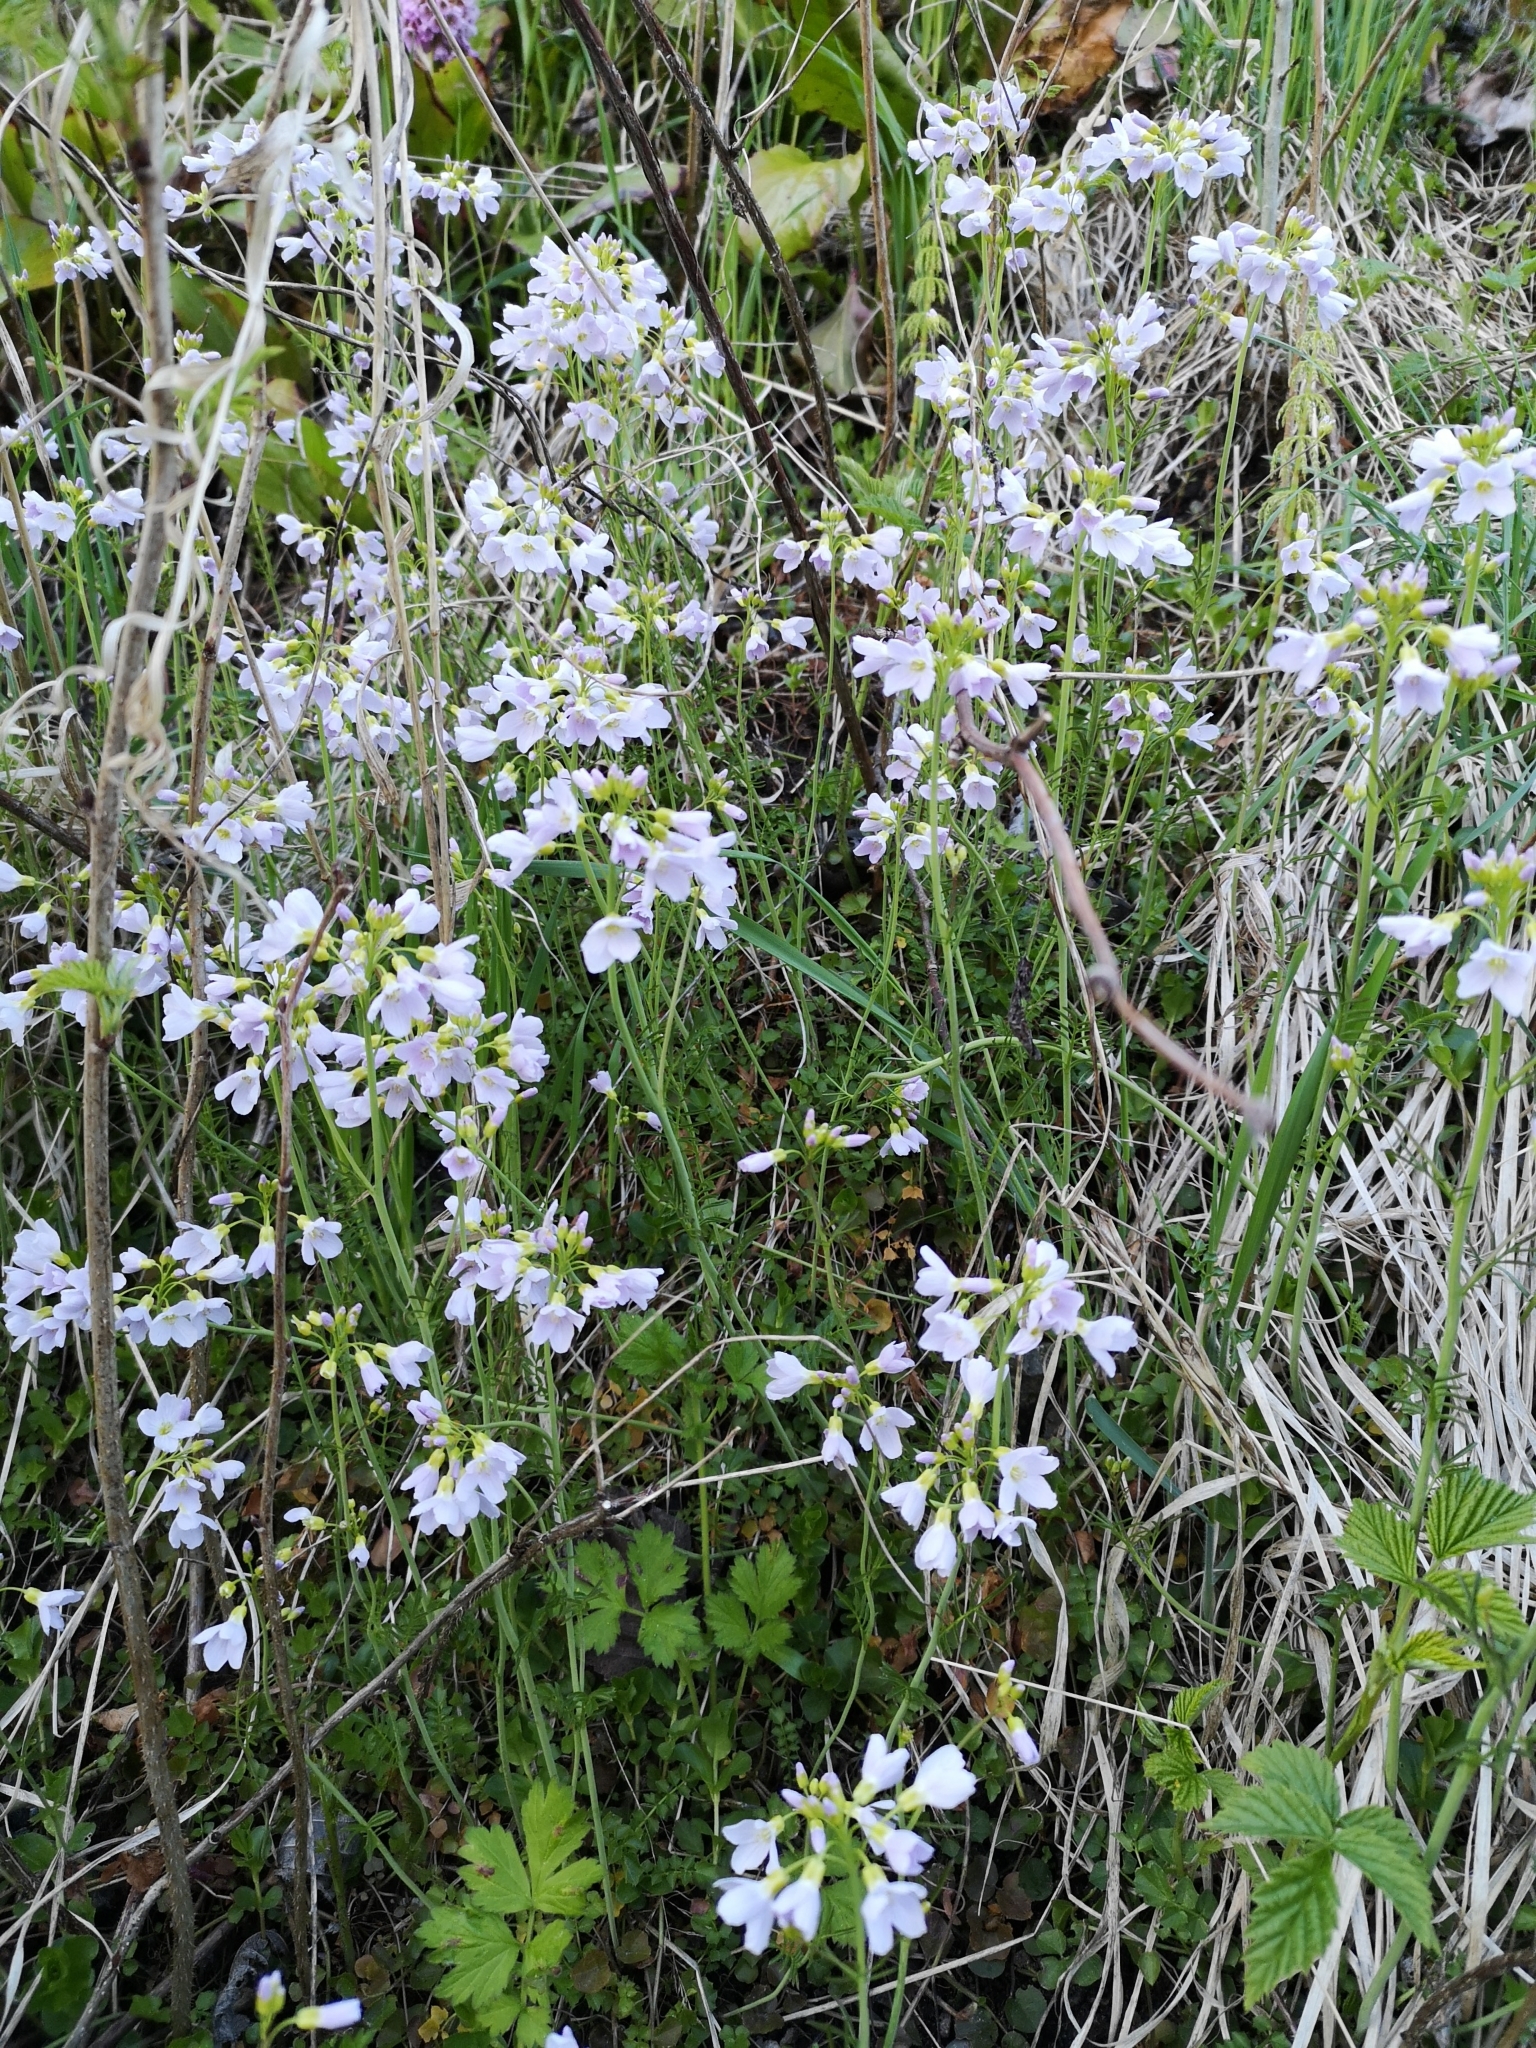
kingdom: Plantae
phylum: Tracheophyta
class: Magnoliopsida
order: Brassicales
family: Brassicaceae
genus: Cardamine
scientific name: Cardamine pratensis
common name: Cuckoo flower
